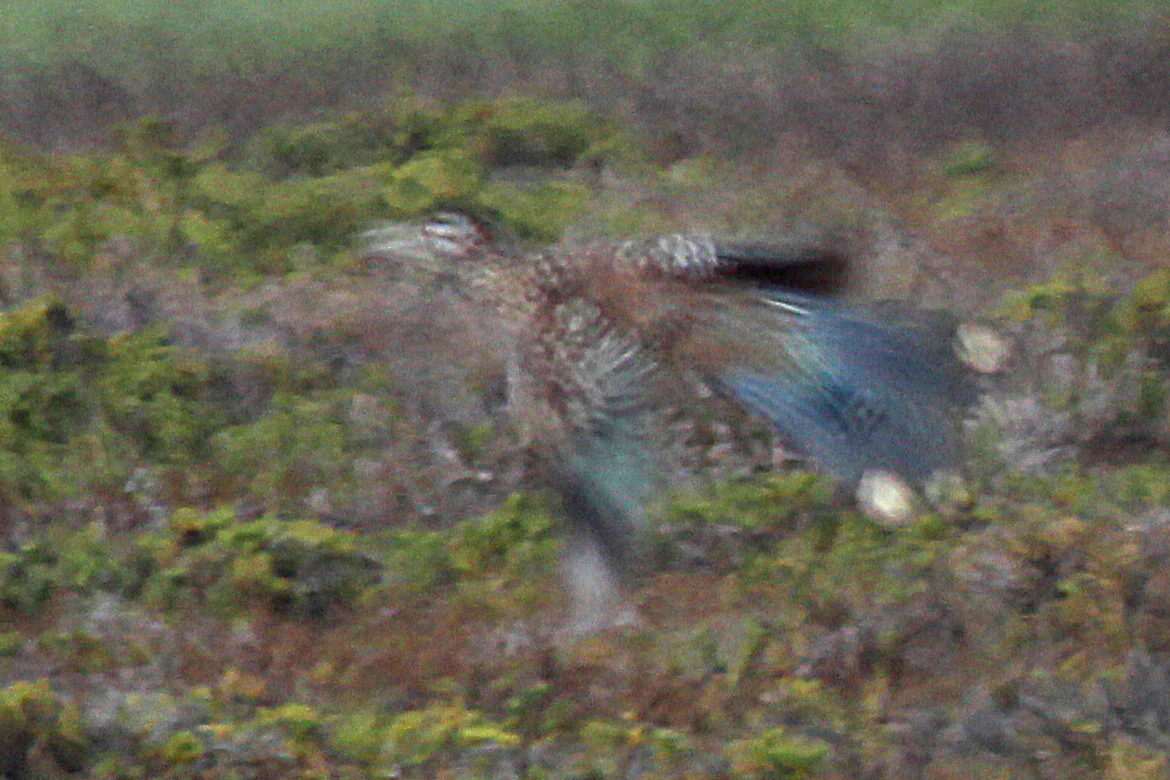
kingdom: Animalia
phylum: Chordata
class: Aves
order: Cuculiformes
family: Cuculidae
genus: Geococcyx
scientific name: Geococcyx californianus
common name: Greater roadrunner
